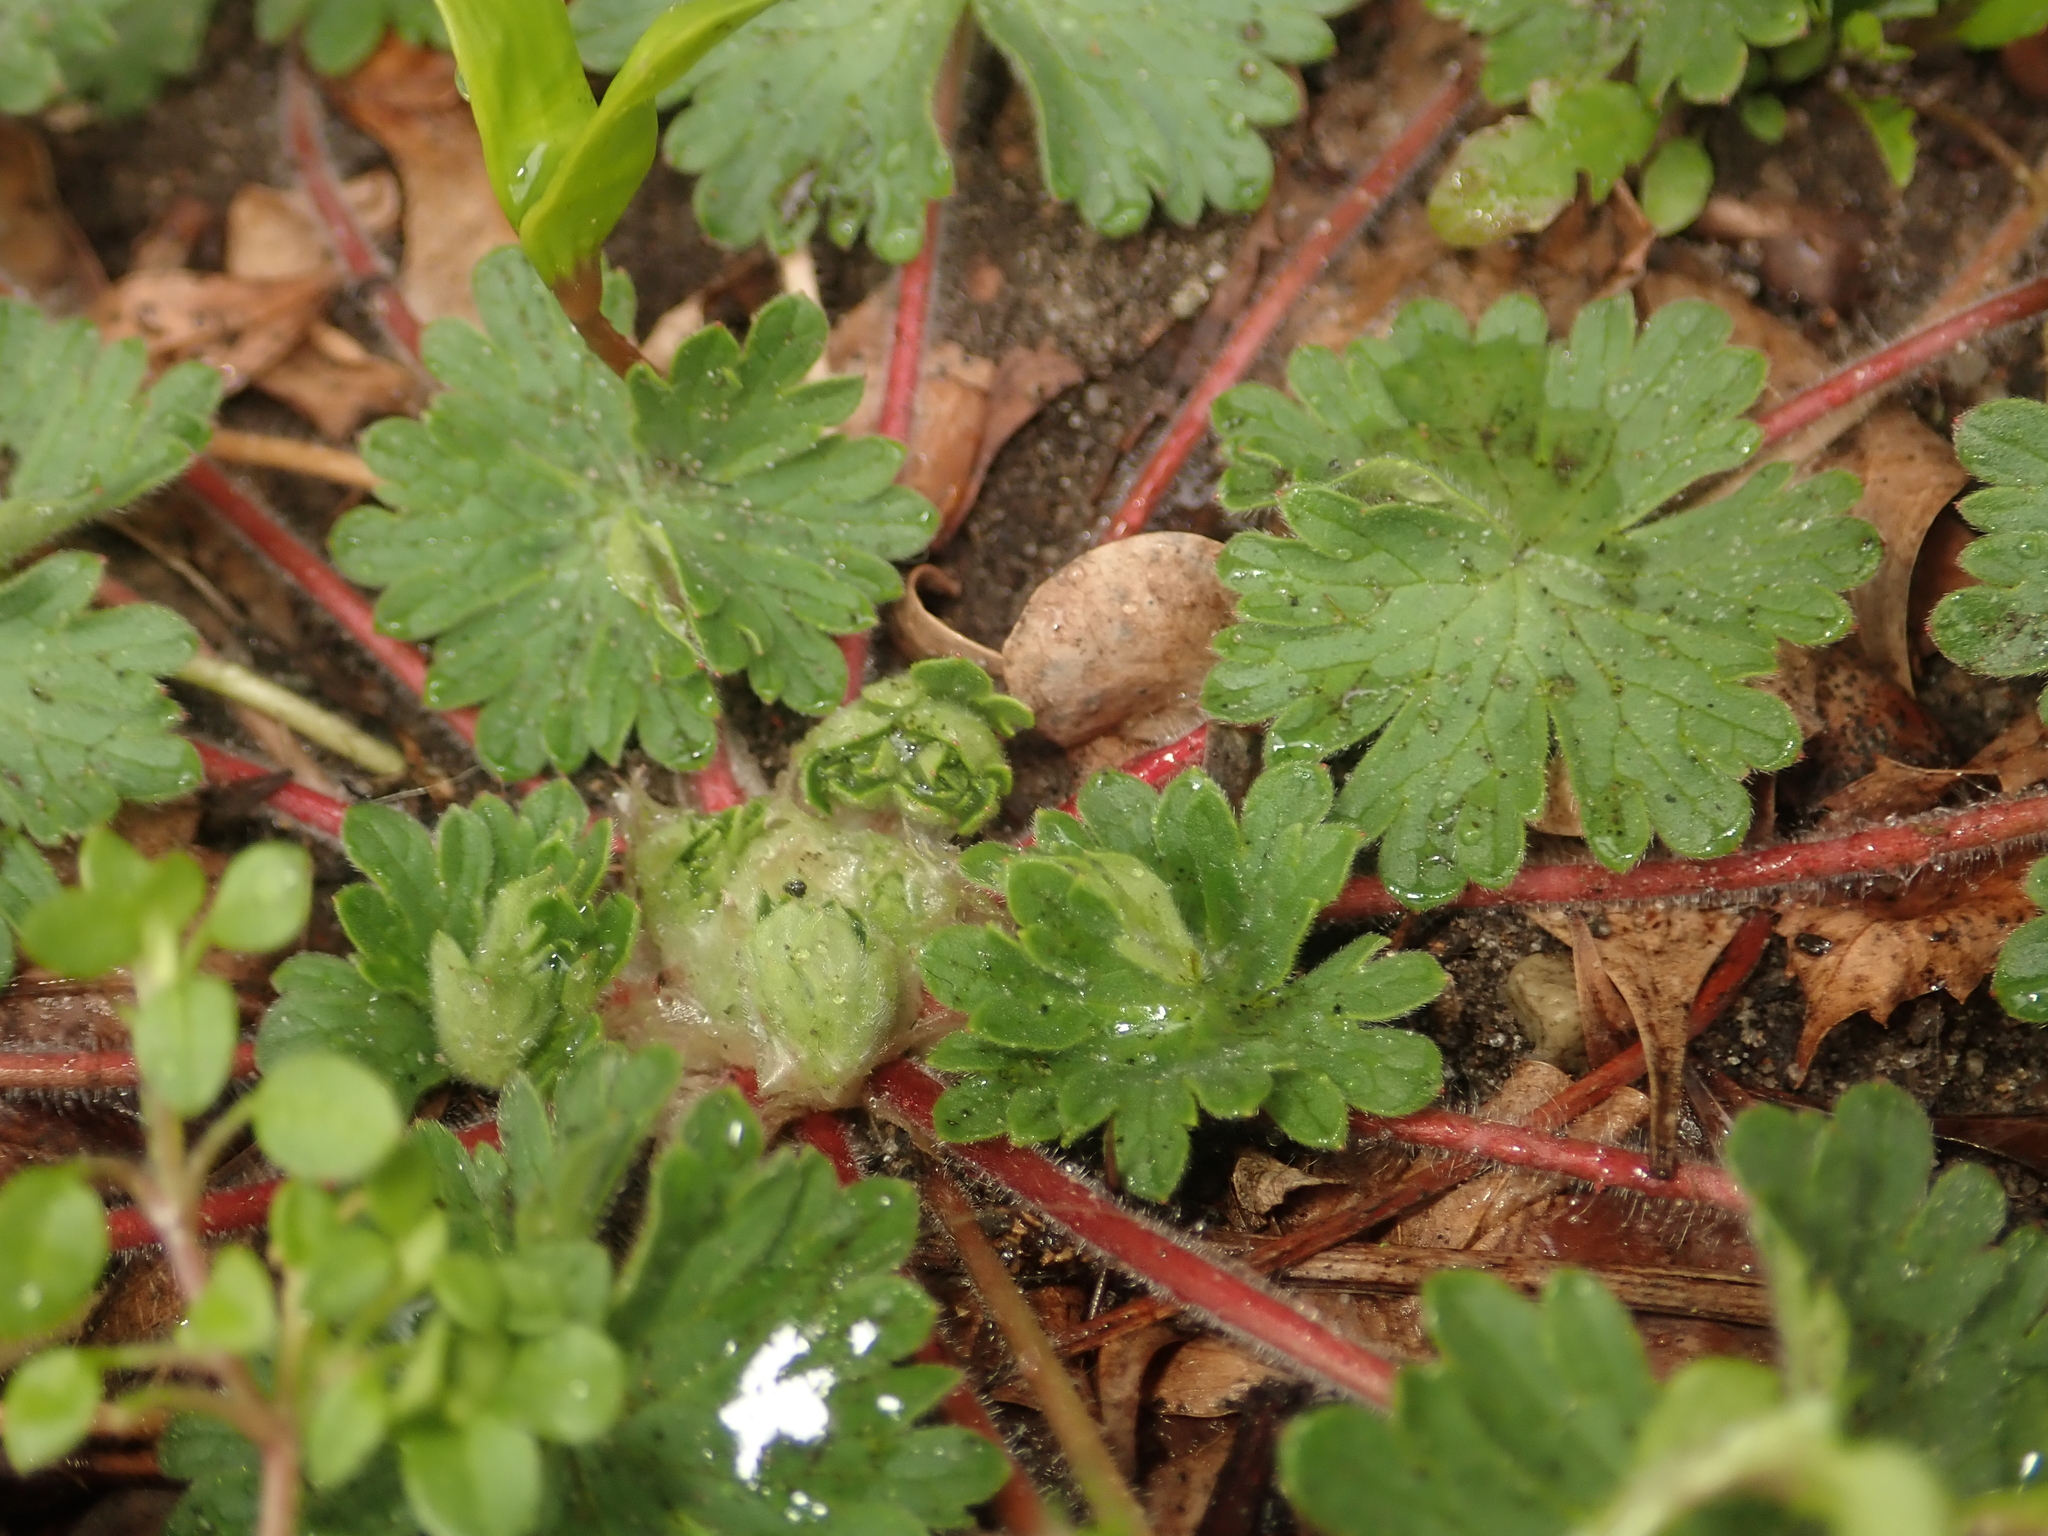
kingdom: Plantae
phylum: Tracheophyta
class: Magnoliopsida
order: Geraniales
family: Geraniaceae
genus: Geranium
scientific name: Geranium molle
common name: Dove's-foot crane's-bill
